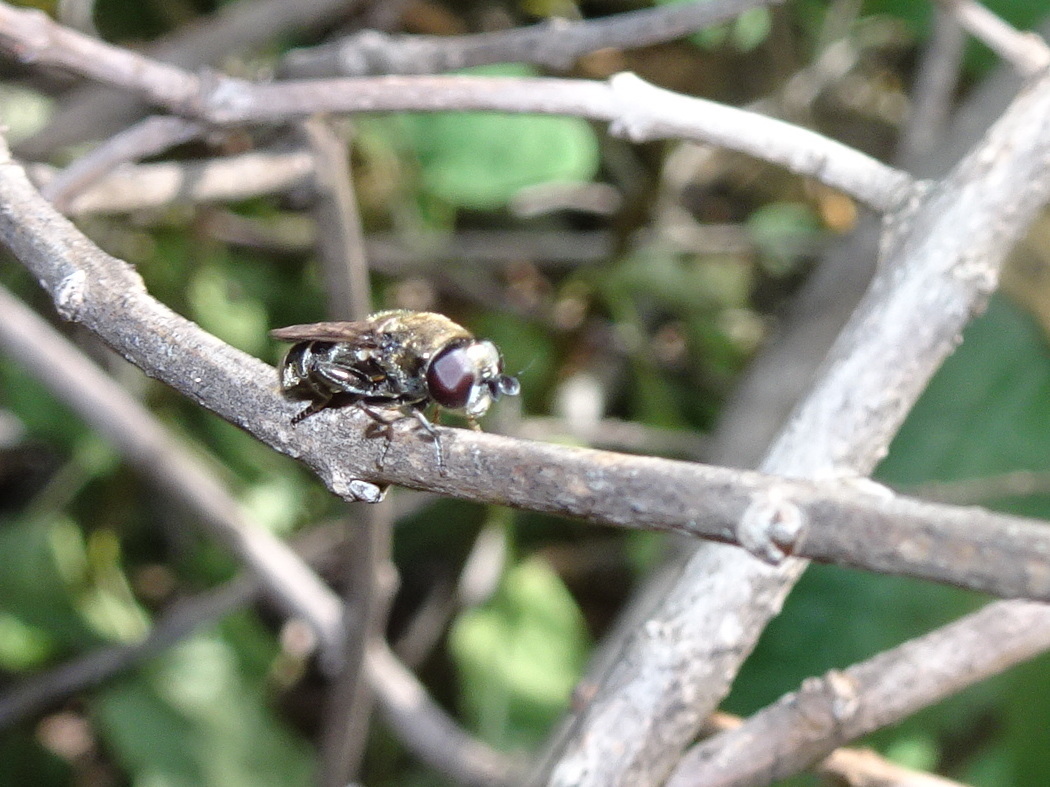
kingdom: Animalia
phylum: Arthropoda
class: Insecta
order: Diptera
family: Syrphidae
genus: Eumerus
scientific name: Eumerus
